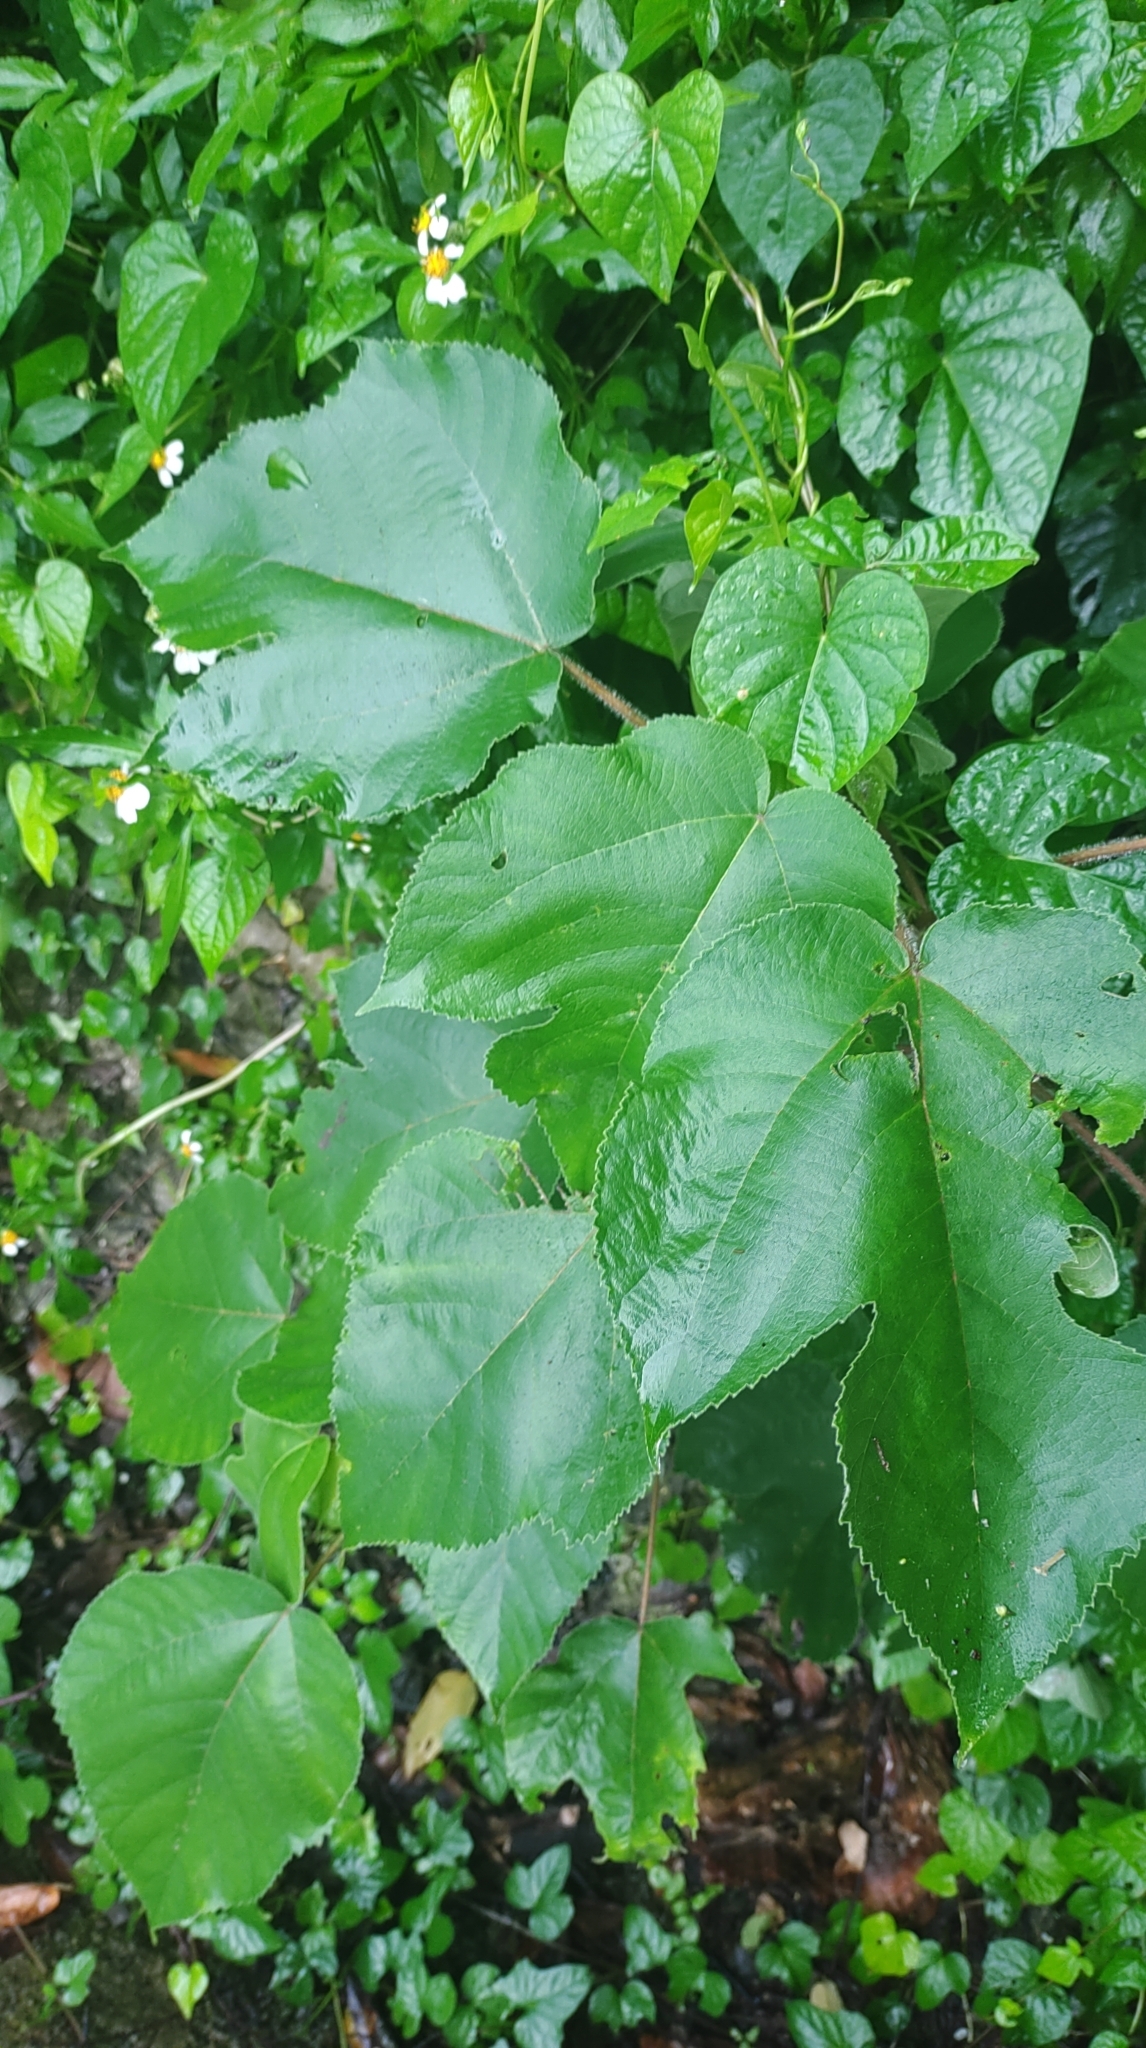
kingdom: Plantae
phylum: Tracheophyta
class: Magnoliopsida
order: Rosales
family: Moraceae
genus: Broussonetia
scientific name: Broussonetia papyrifera
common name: Paper mulberry
